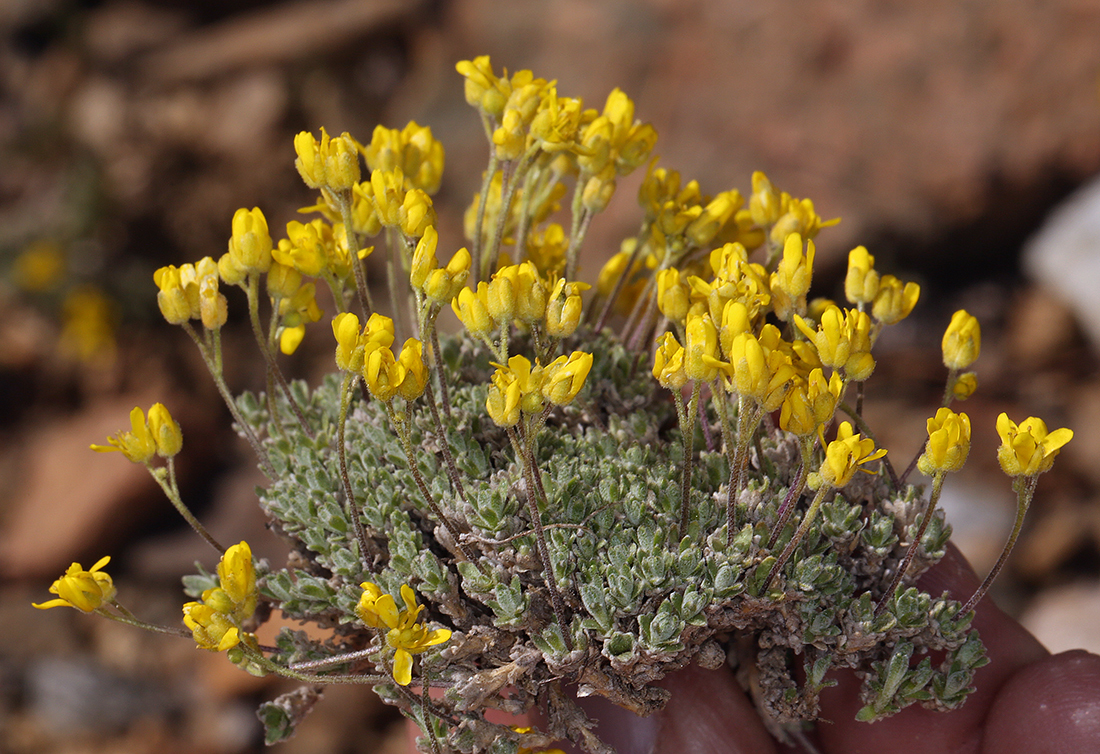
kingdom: Plantae
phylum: Tracheophyta
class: Magnoliopsida
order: Brassicales
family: Brassicaceae
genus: Draba
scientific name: Draba subumbellata
